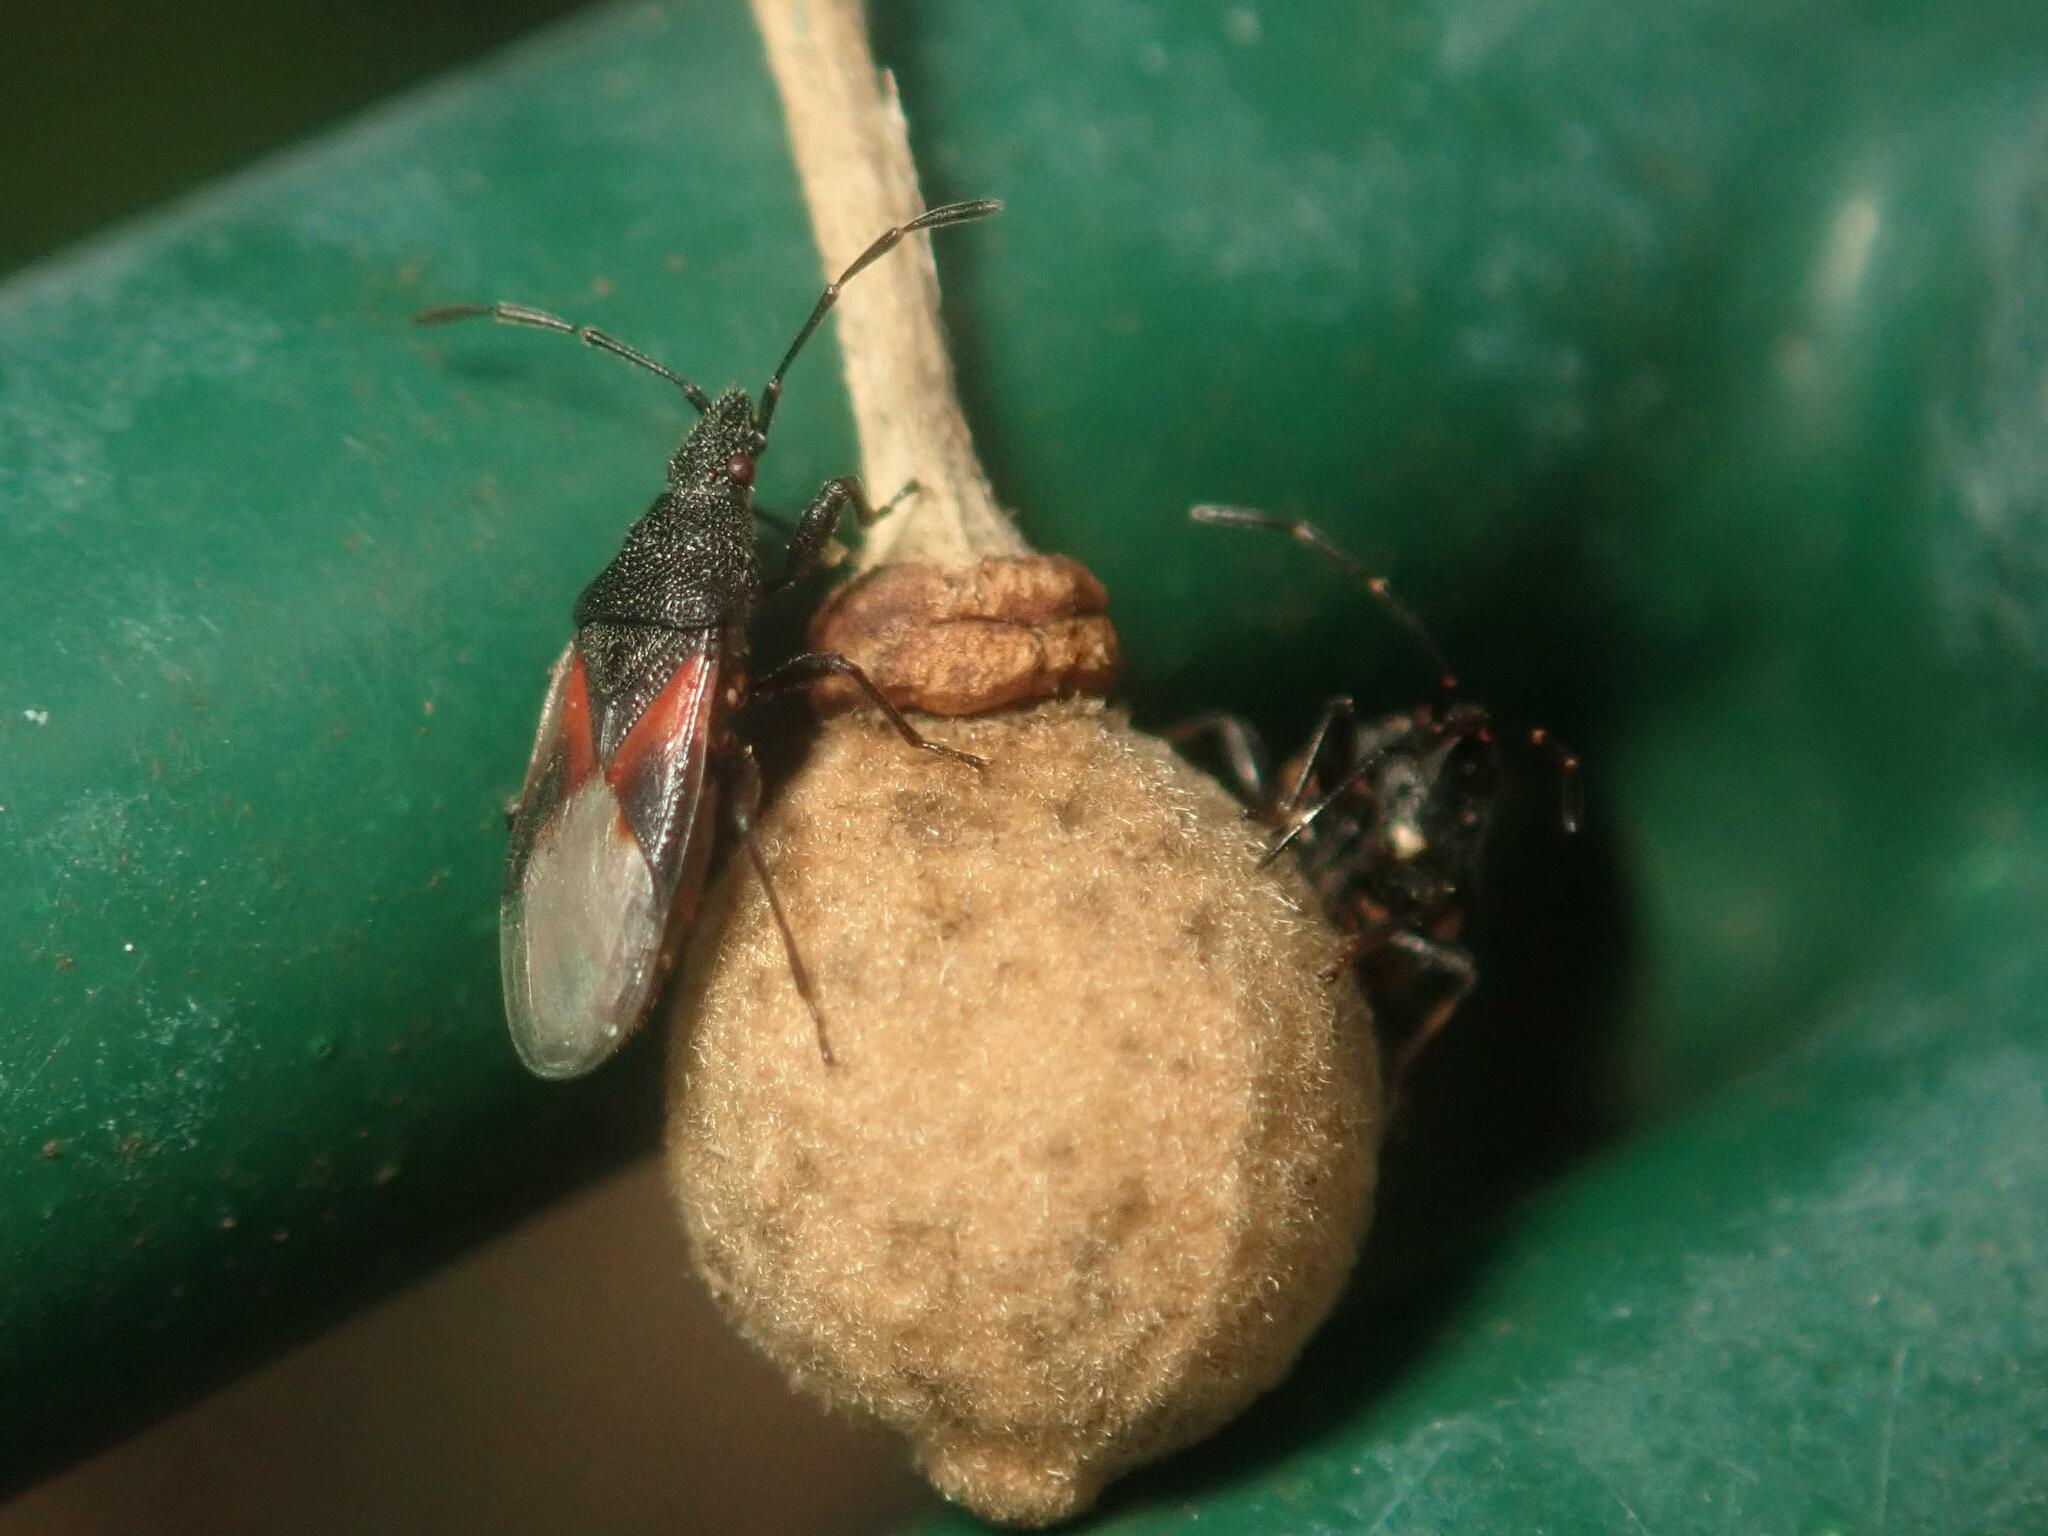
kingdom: Animalia
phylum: Arthropoda
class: Insecta
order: Hemiptera
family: Oxycarenidae
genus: Oxycarenus
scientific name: Oxycarenus lavaterae
